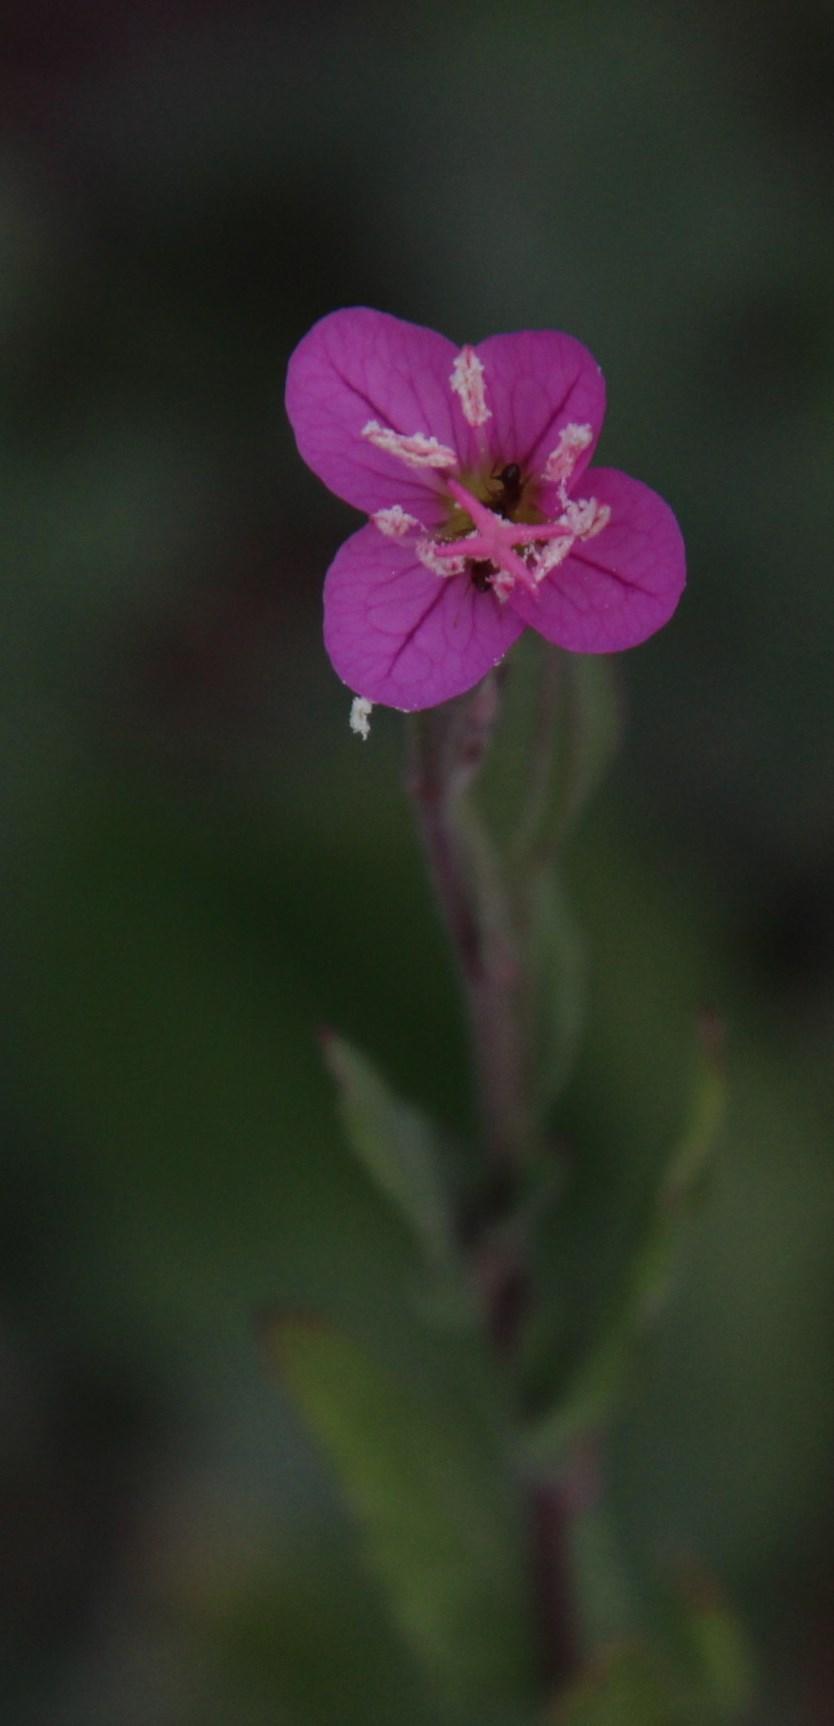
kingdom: Plantae
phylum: Tracheophyta
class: Magnoliopsida
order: Myrtales
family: Onagraceae
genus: Oenothera
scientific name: Oenothera rosea
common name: Rosy evening-primrose
